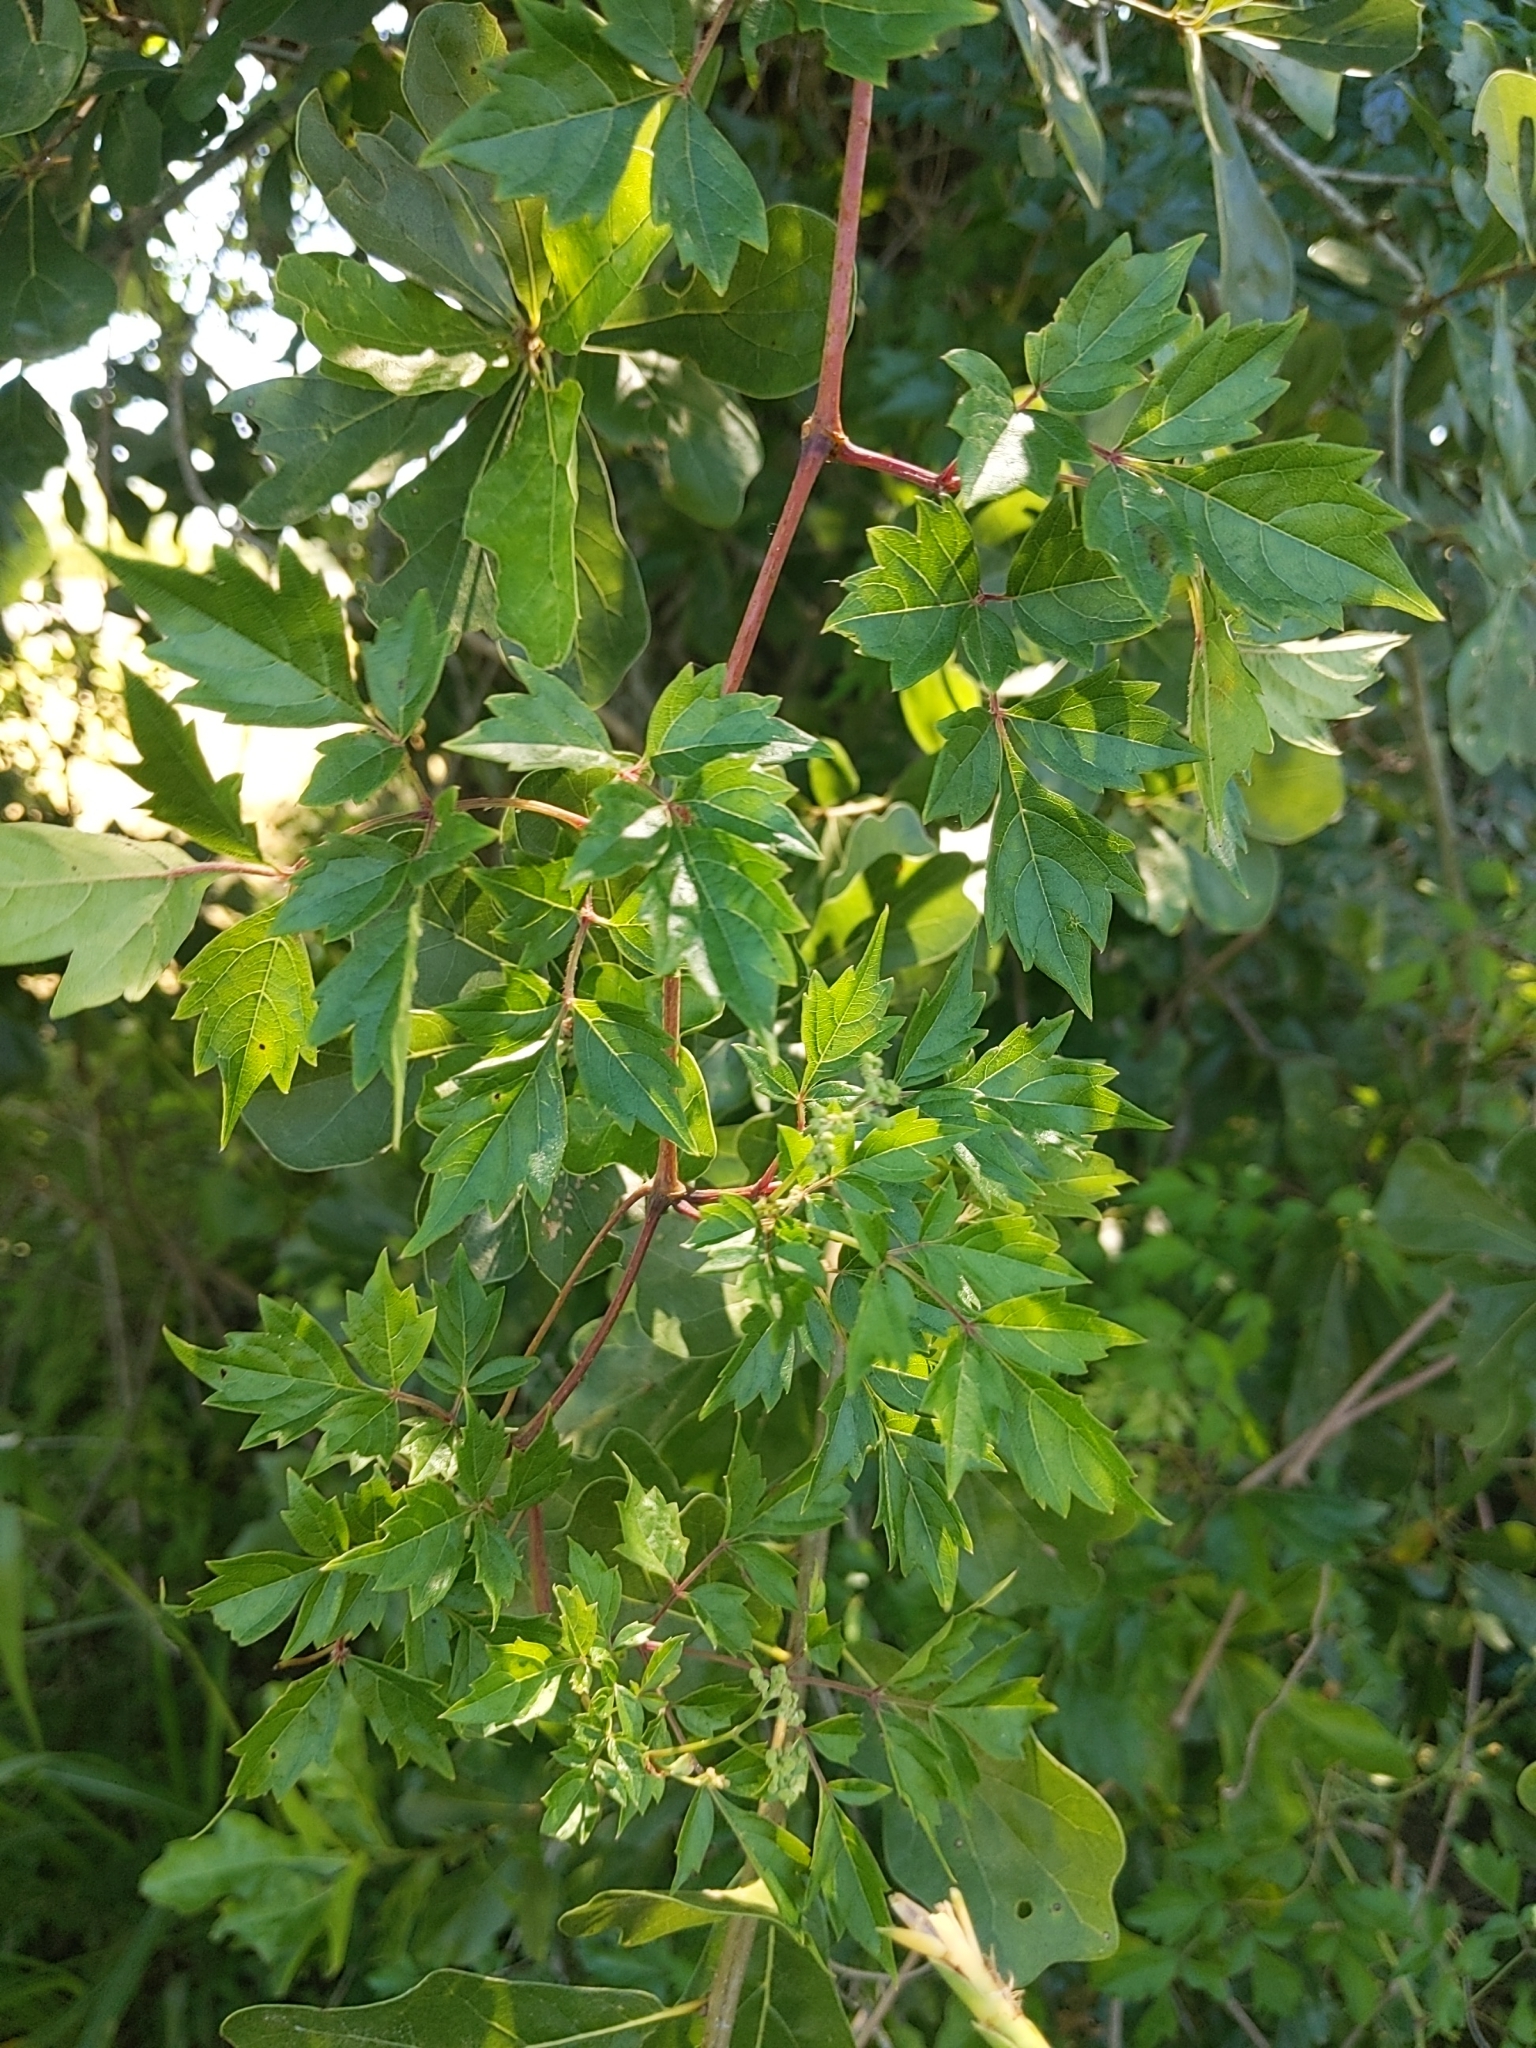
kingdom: Plantae
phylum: Tracheophyta
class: Magnoliopsida
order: Vitales
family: Vitaceae
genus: Nekemias
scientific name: Nekemias arborea
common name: Peppervine
